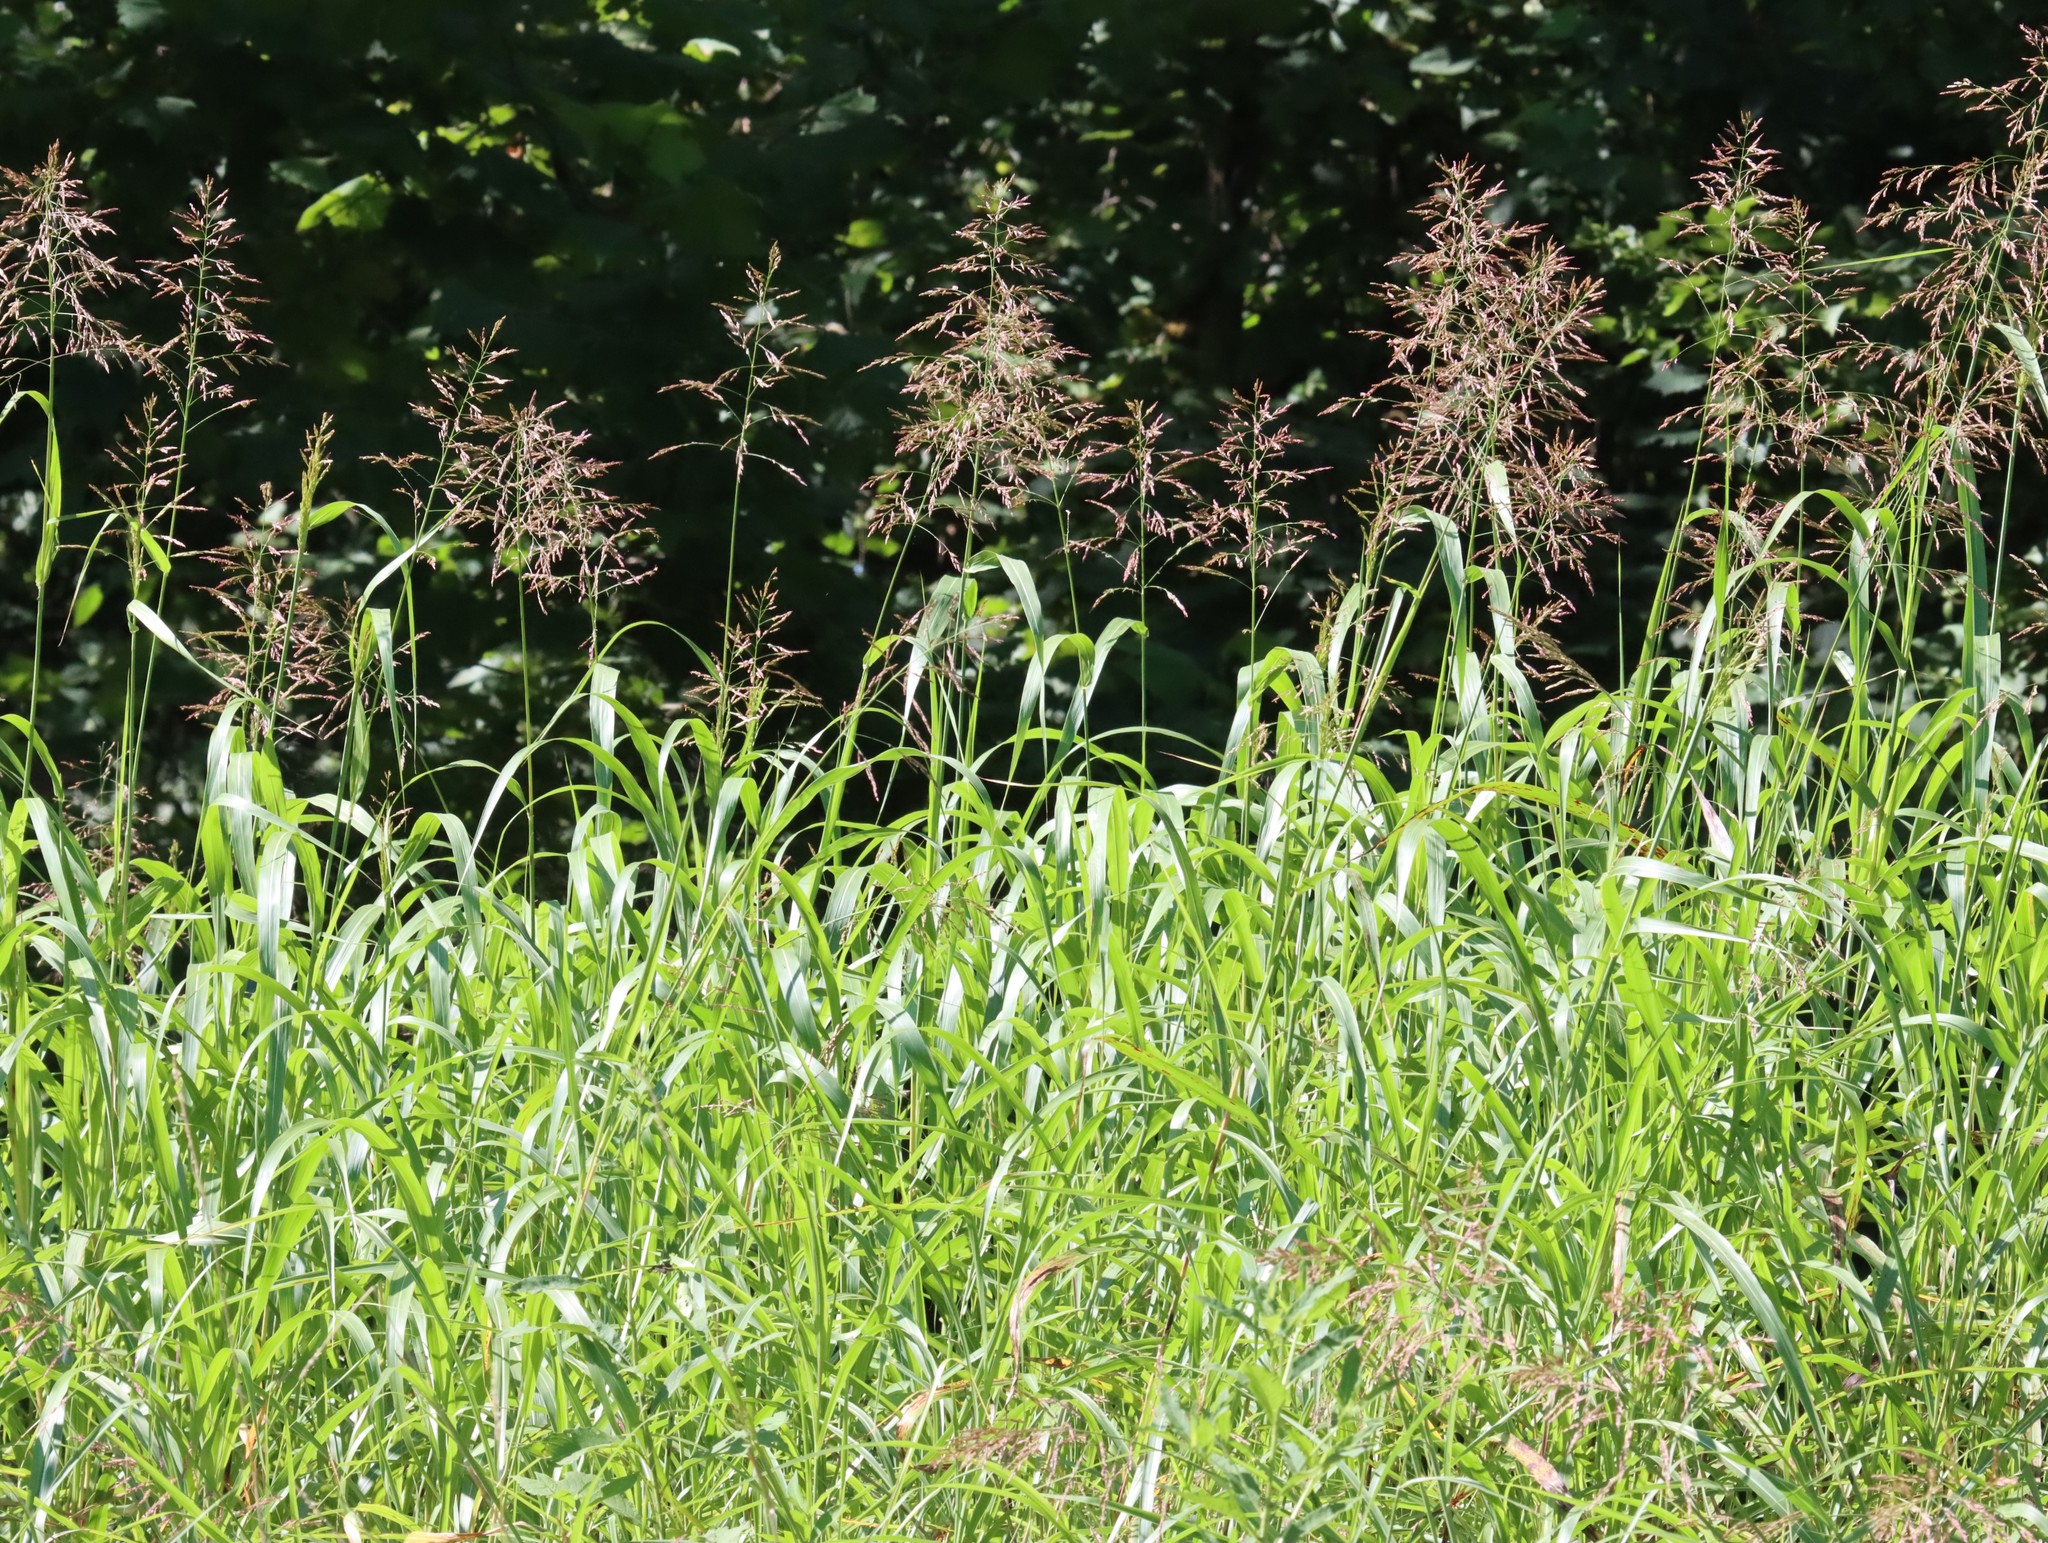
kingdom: Plantae
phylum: Tracheophyta
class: Liliopsida
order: Poales
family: Poaceae
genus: Sorghum
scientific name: Sorghum halepense
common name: Johnson-grass
